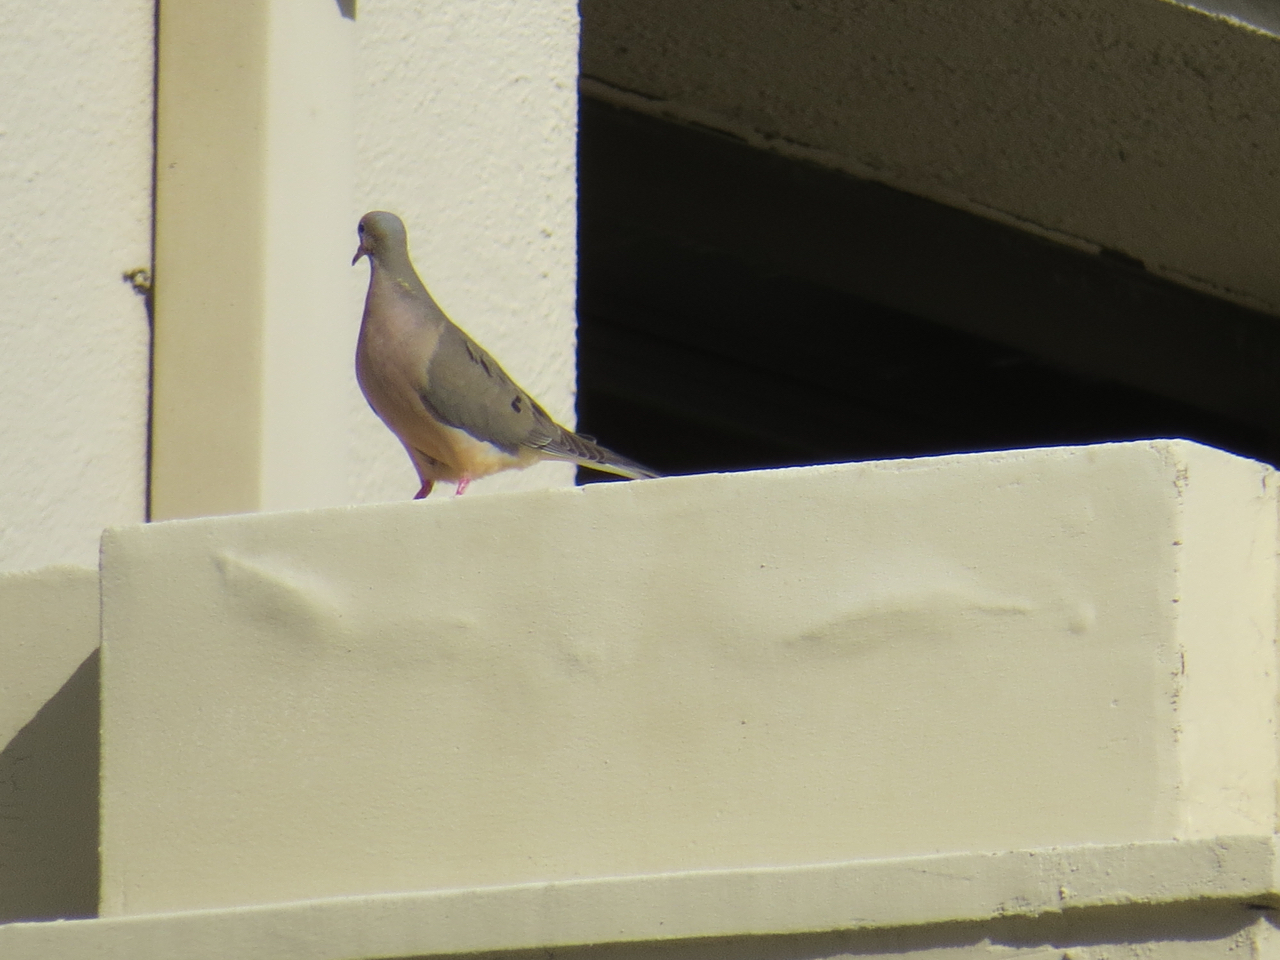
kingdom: Animalia
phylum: Chordata
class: Aves
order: Columbiformes
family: Columbidae
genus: Zenaida
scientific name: Zenaida macroura
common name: Mourning dove
